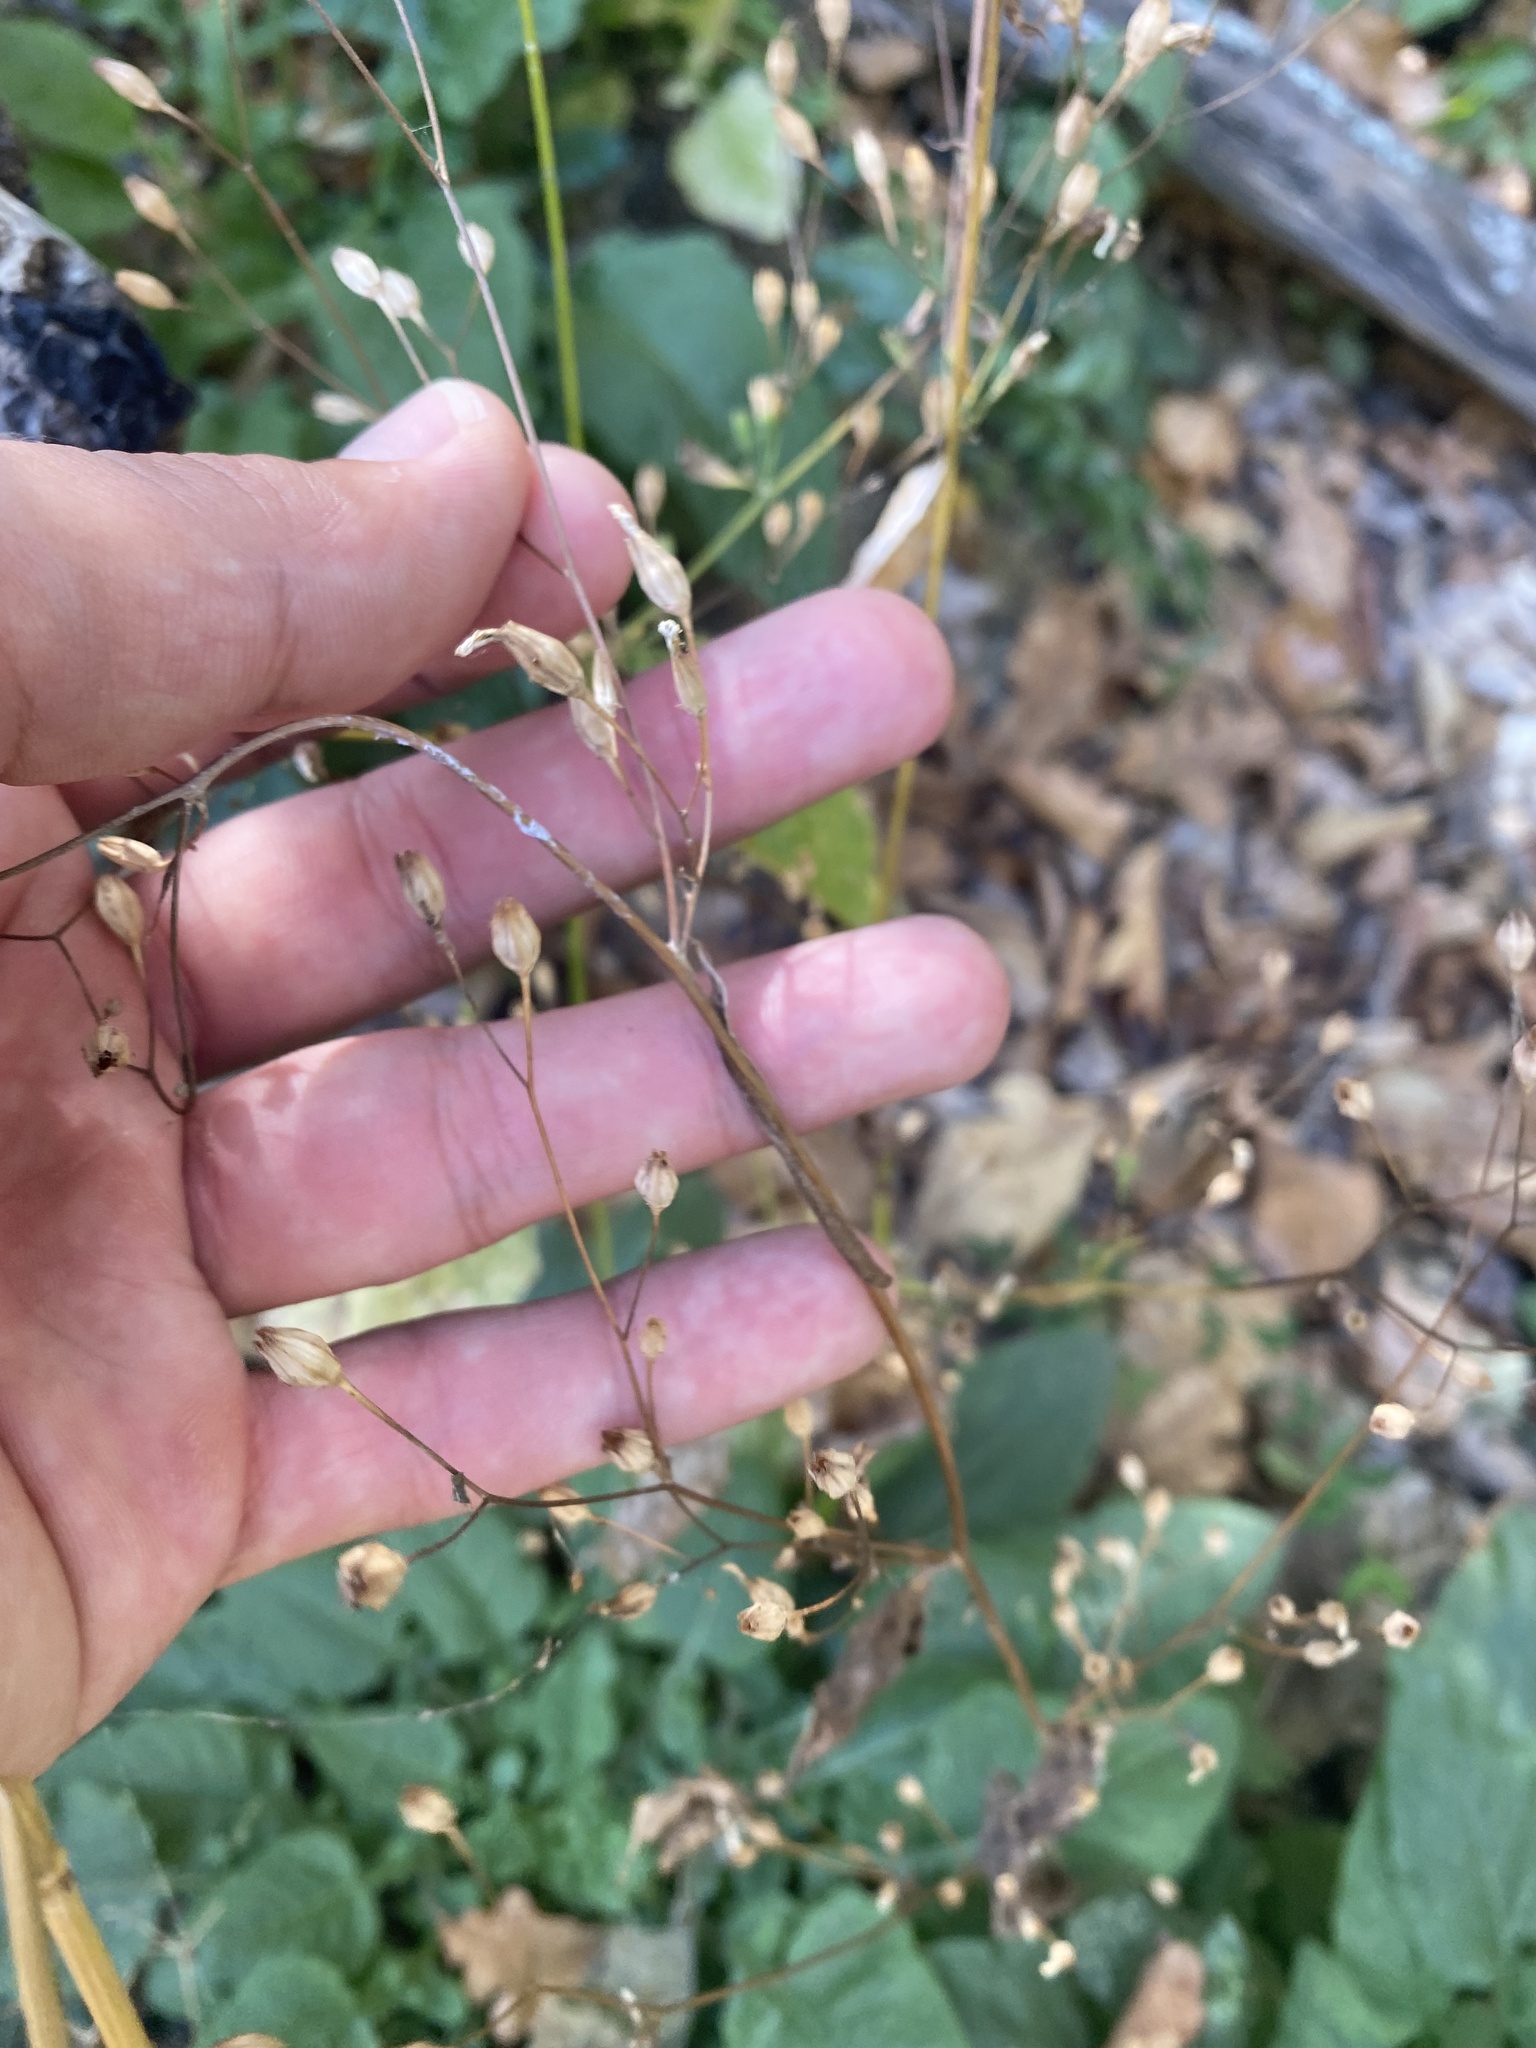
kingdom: Plantae
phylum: Tracheophyta
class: Magnoliopsida
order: Asterales
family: Asteraceae
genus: Lapsana
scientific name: Lapsana communis
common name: Nipplewort
